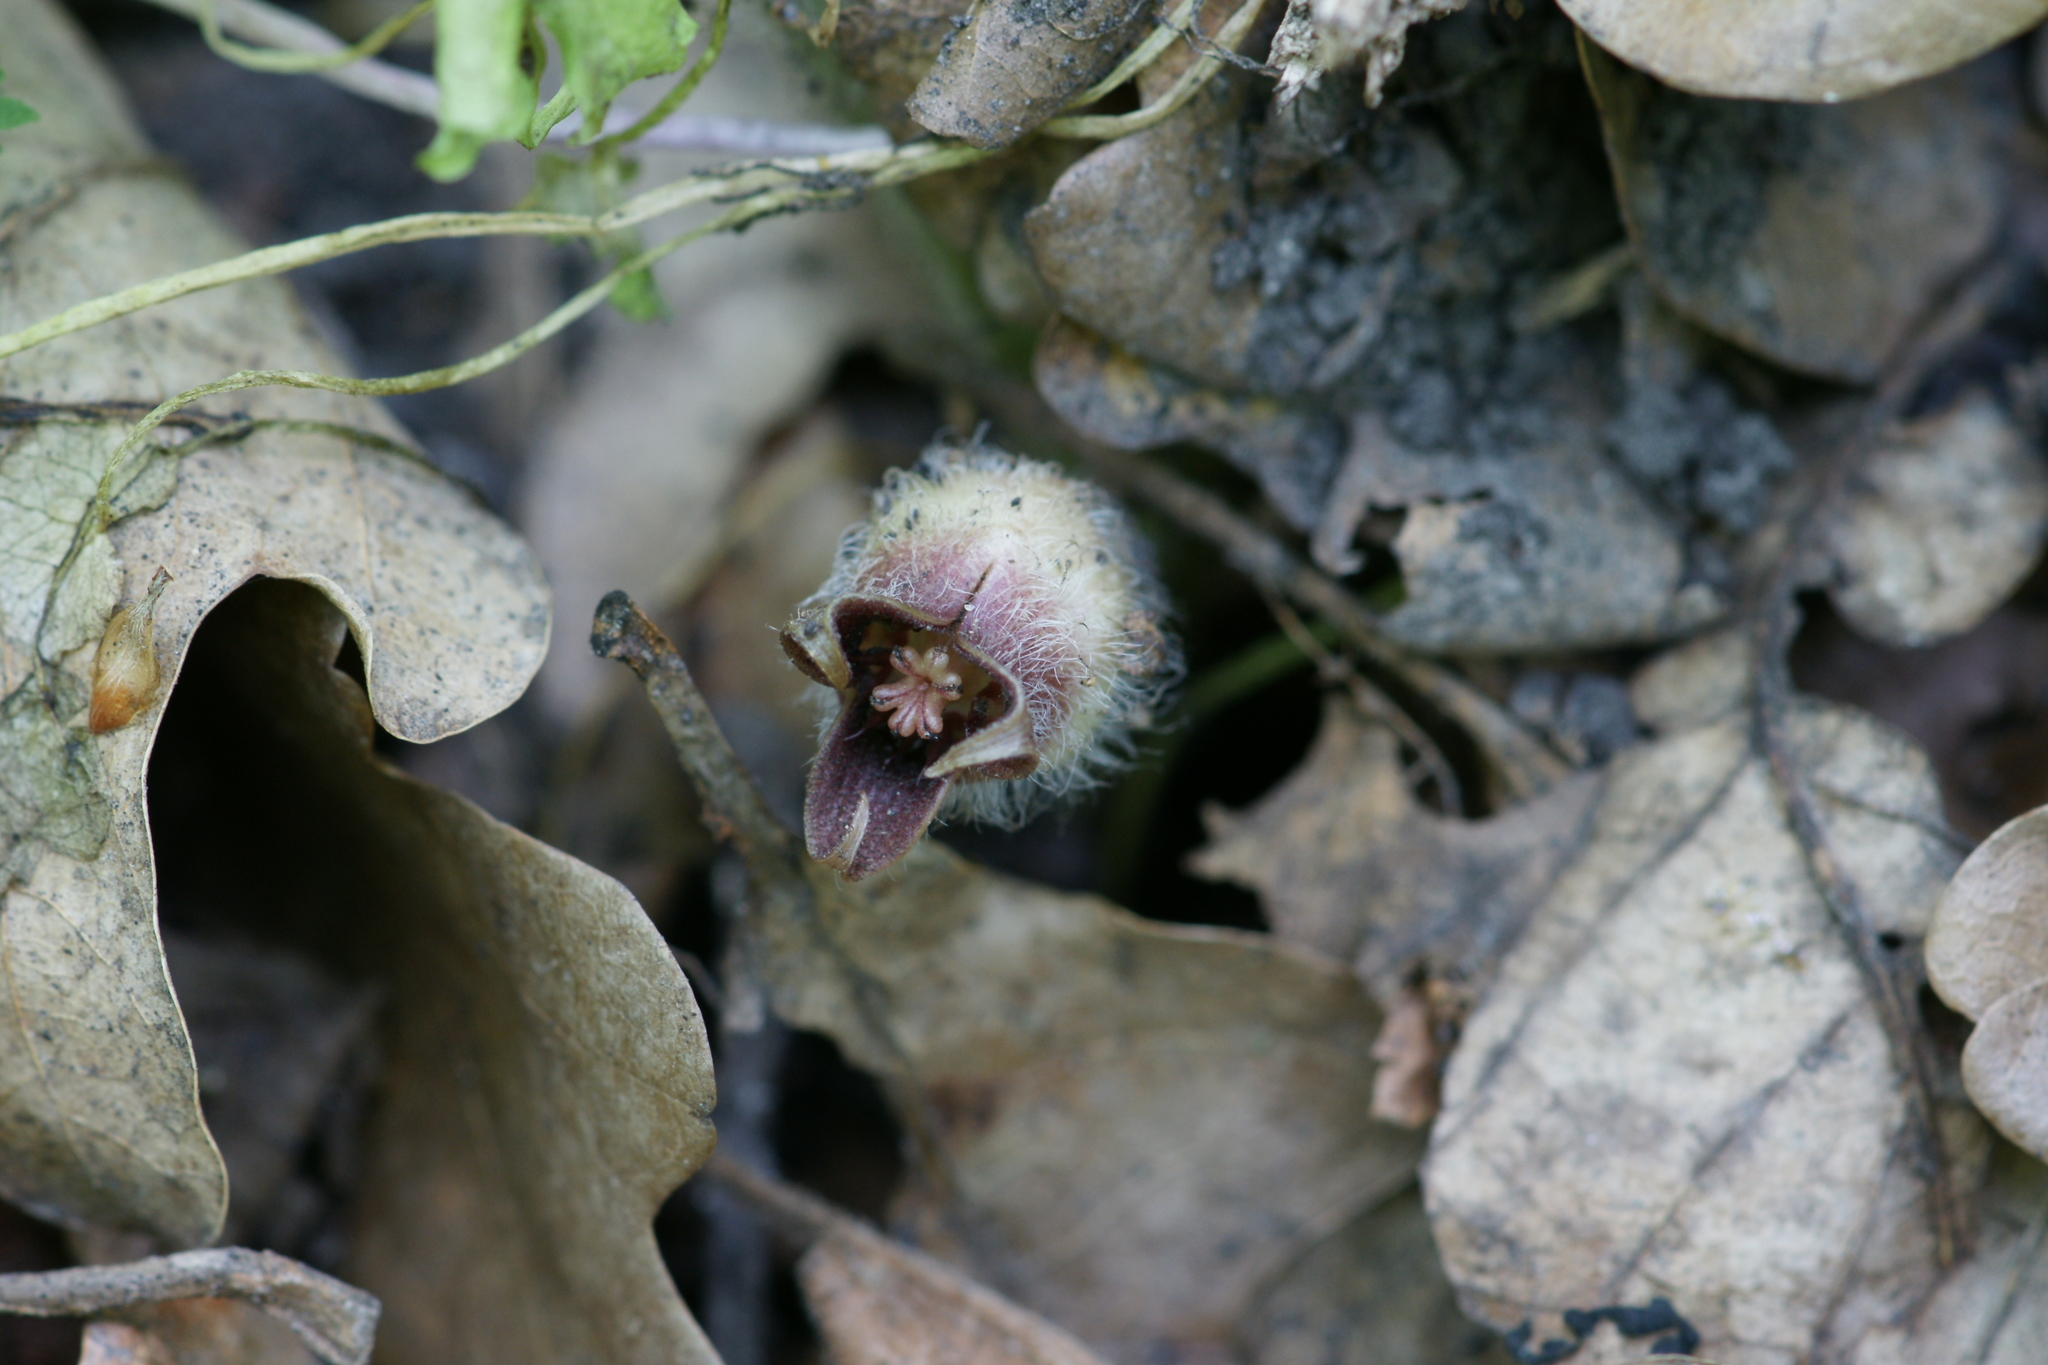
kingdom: Plantae
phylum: Tracheophyta
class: Magnoliopsida
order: Piperales
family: Aristolochiaceae
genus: Asarum
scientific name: Asarum europaeum
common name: Asarabacca
